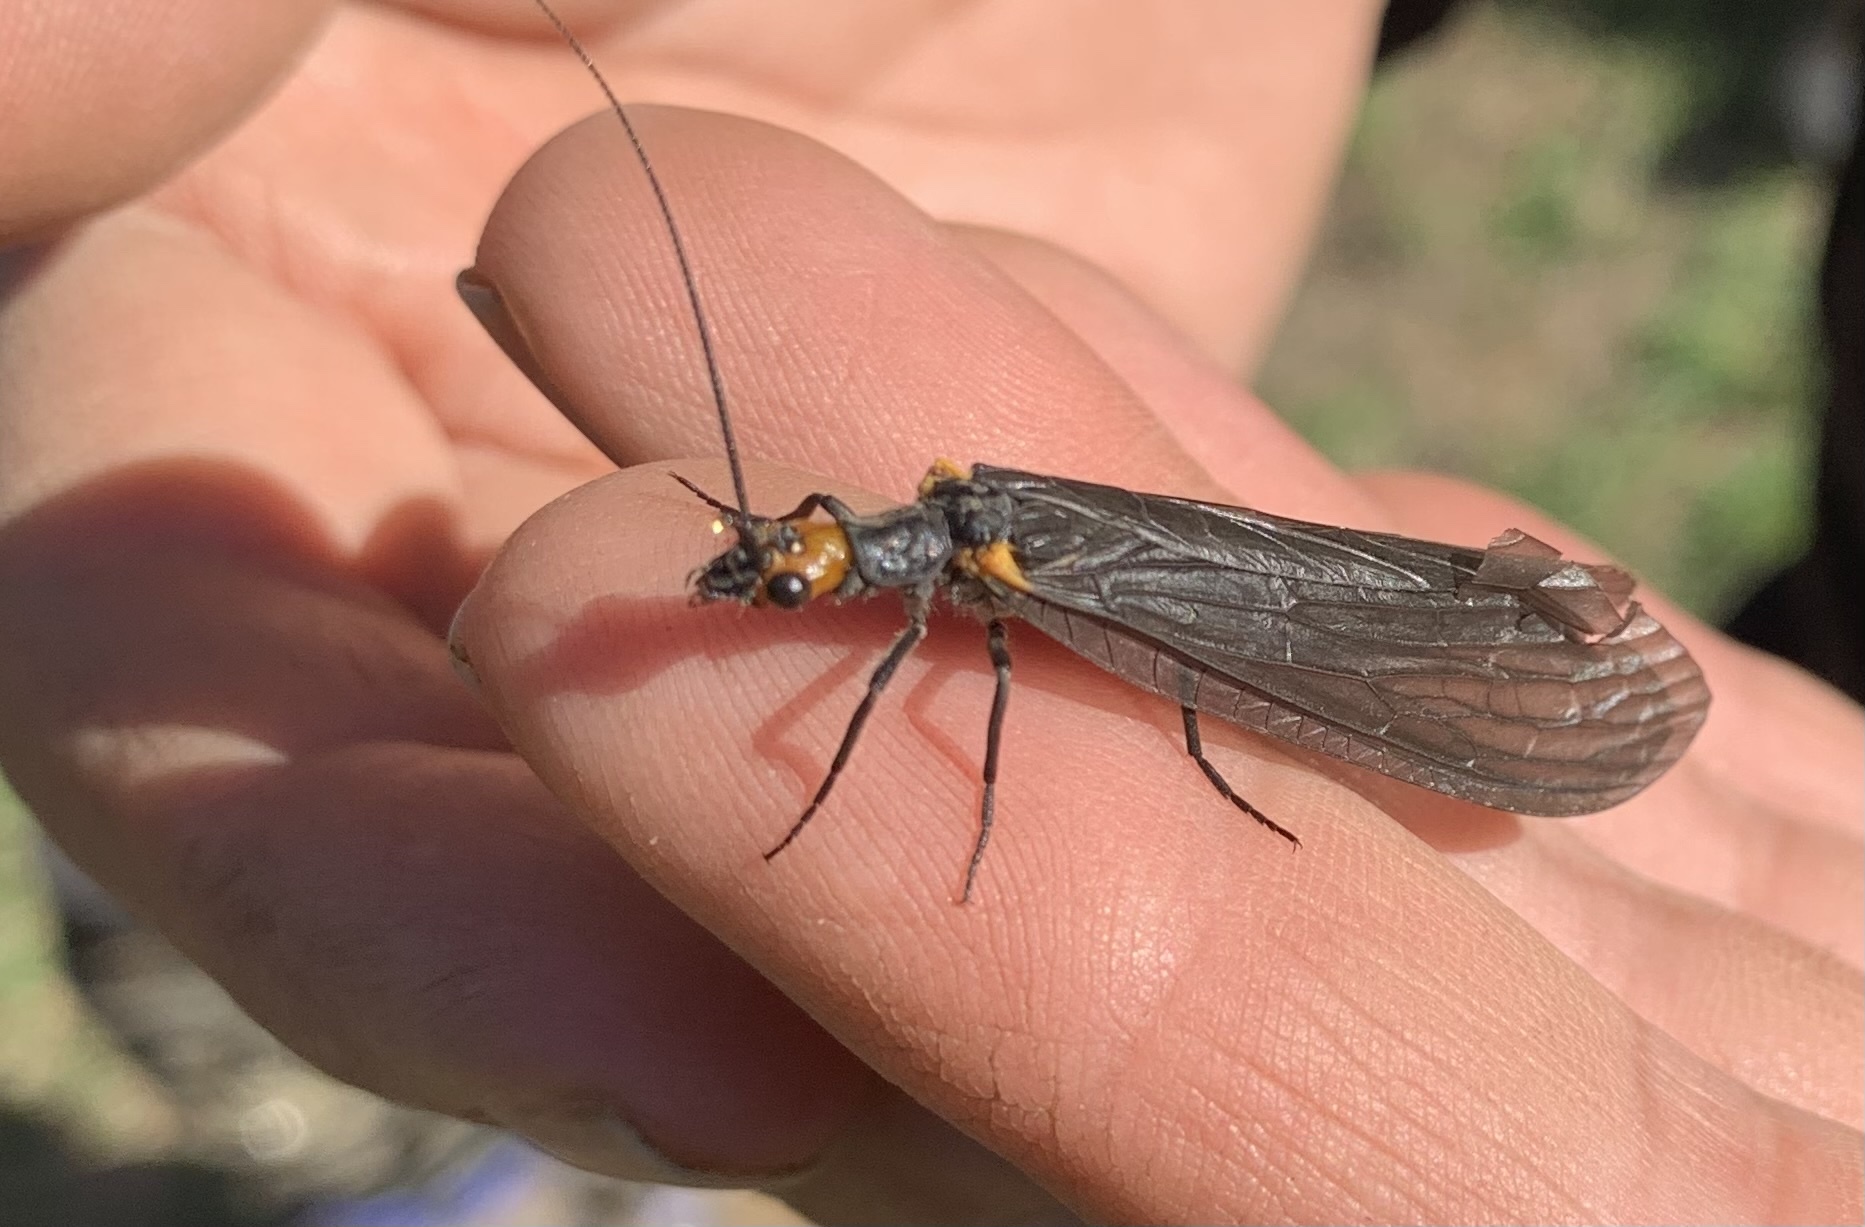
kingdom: Animalia
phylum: Arthropoda
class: Insecta
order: Megaloptera
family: Corydalidae
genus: Protochauliodes
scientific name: Protochauliodes humeralis
